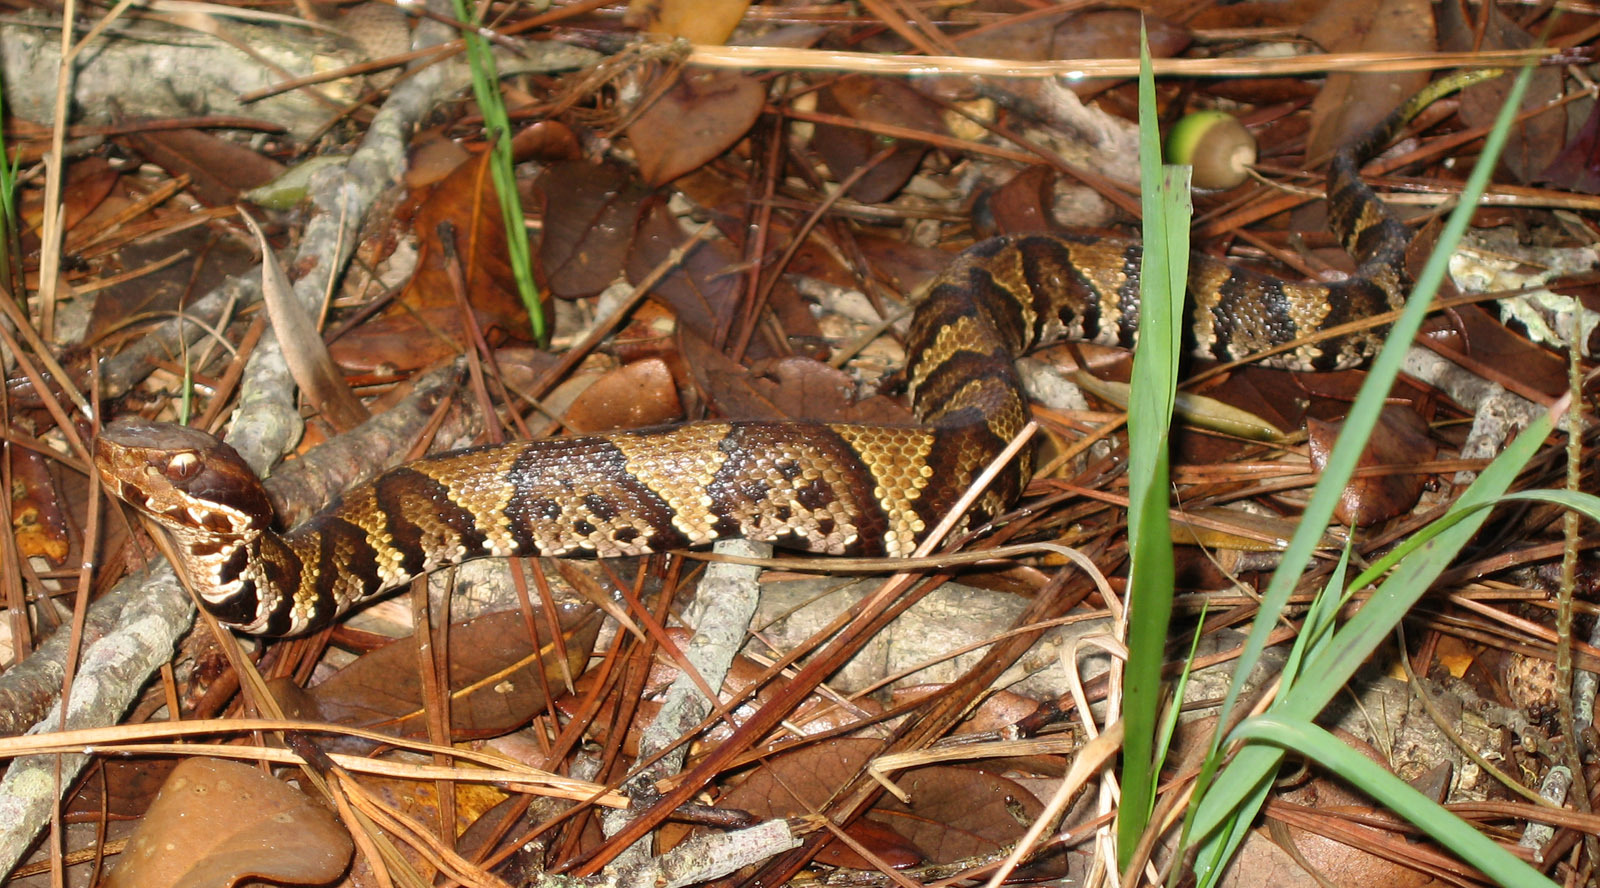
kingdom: Animalia
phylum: Chordata
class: Squamata
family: Viperidae
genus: Agkistrodon
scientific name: Agkistrodon piscivorus
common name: Cottonmouth
